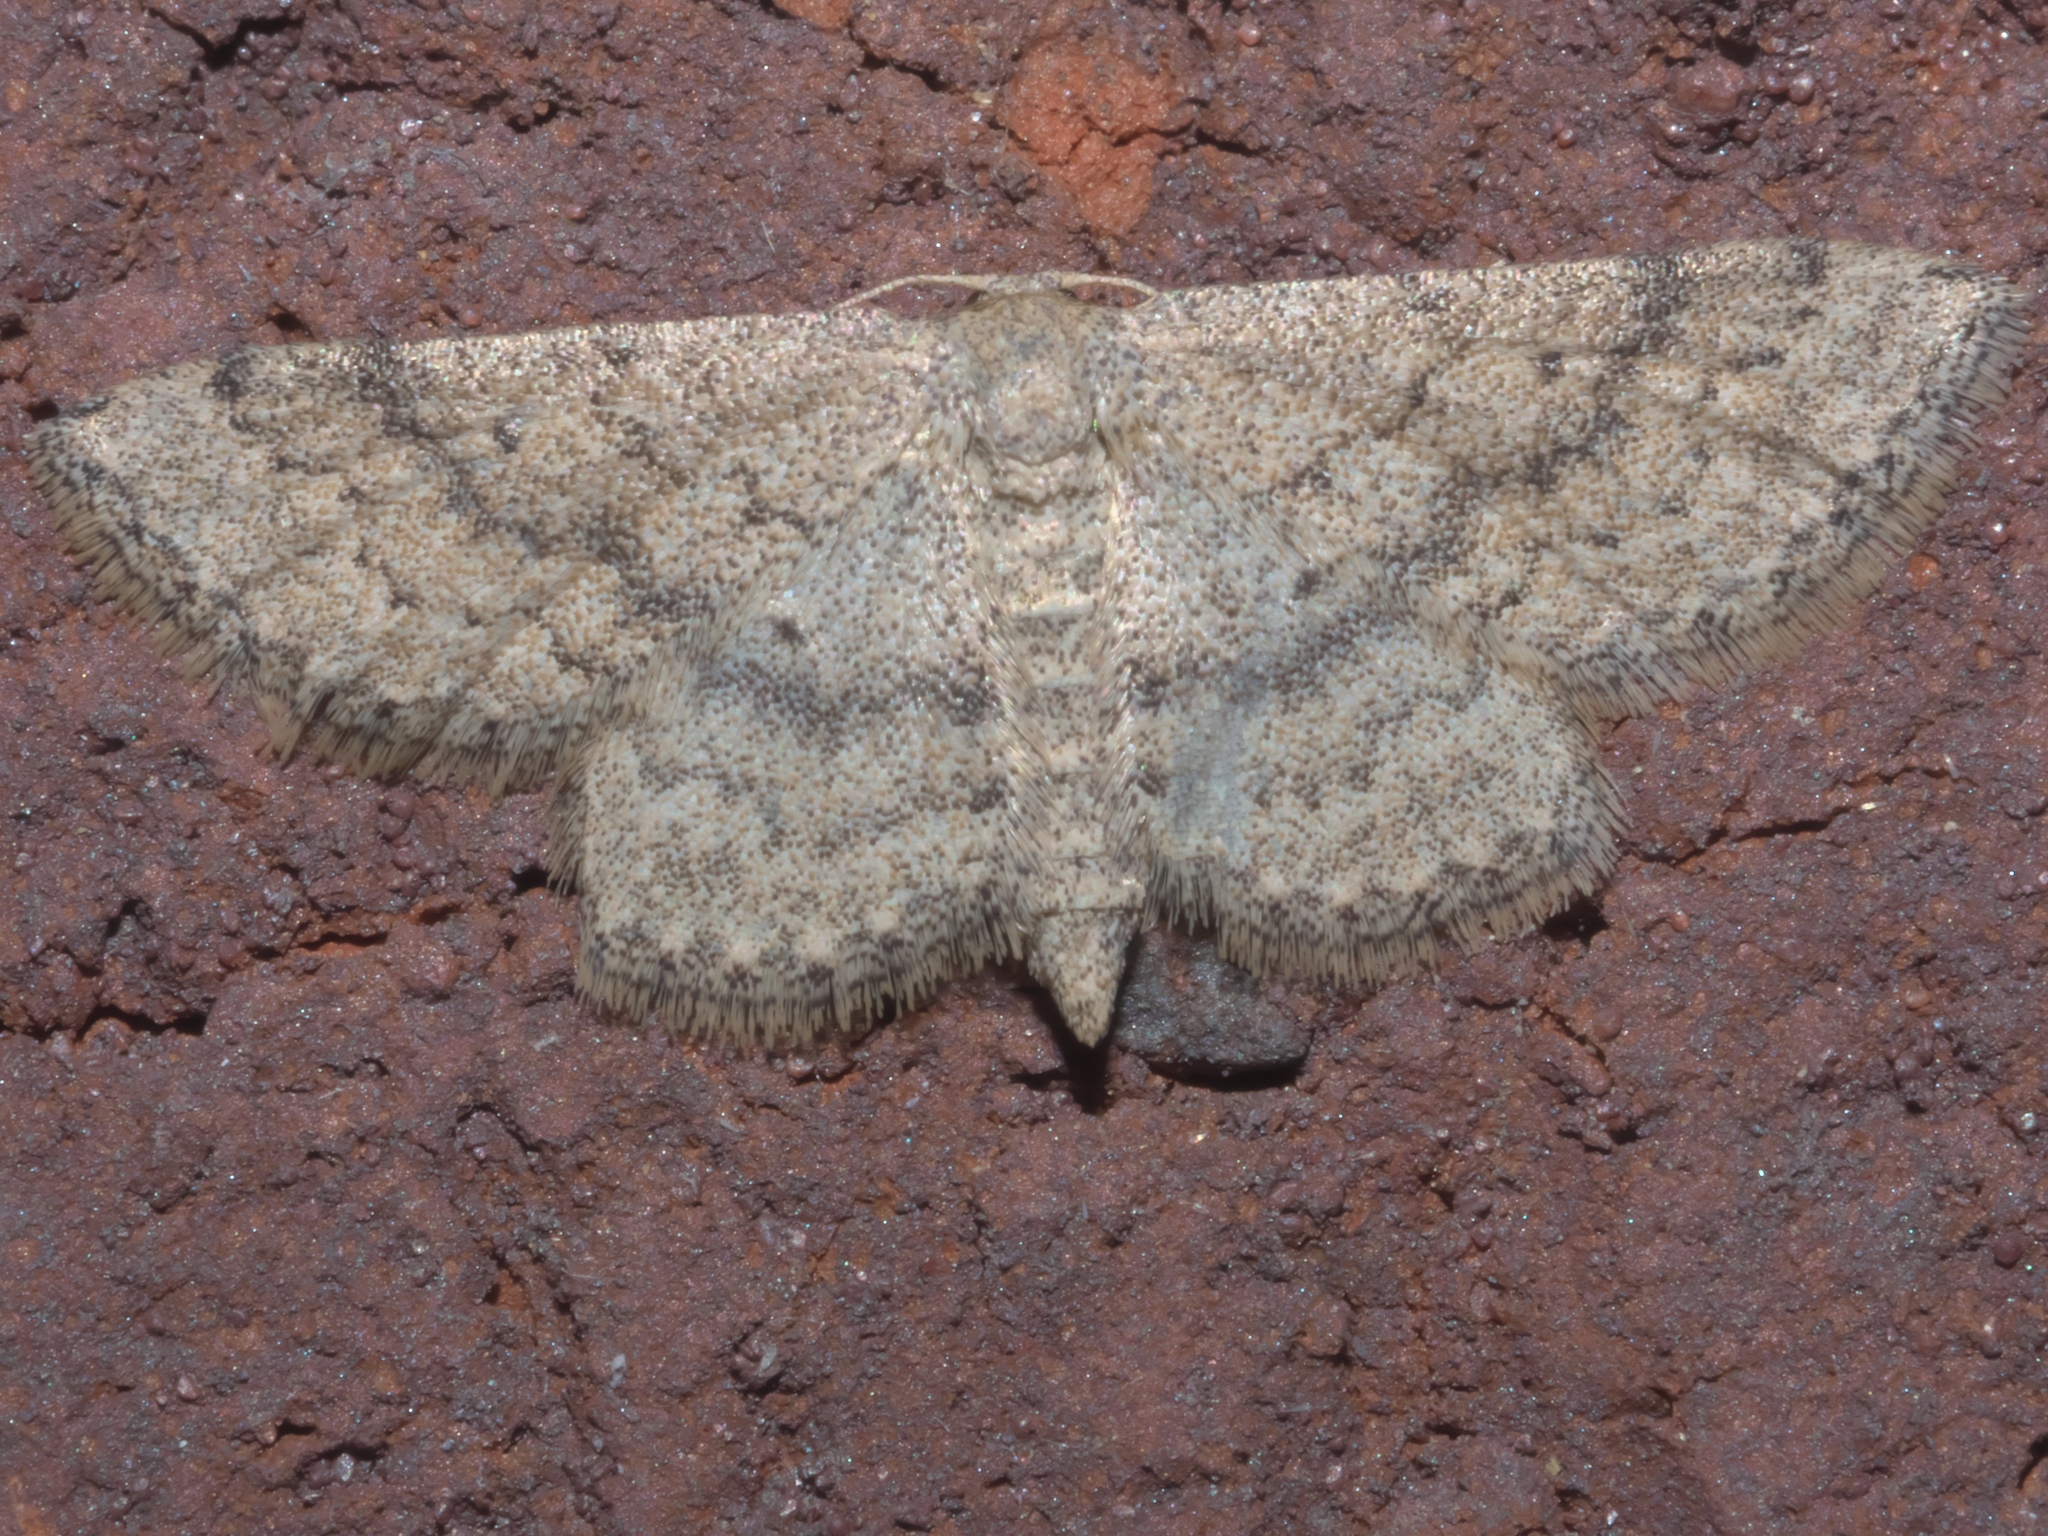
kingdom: Animalia
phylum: Arthropoda
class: Insecta
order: Lepidoptera
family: Geometridae
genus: Lobocleta
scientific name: Lobocleta ossularia
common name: Drab brown wave
